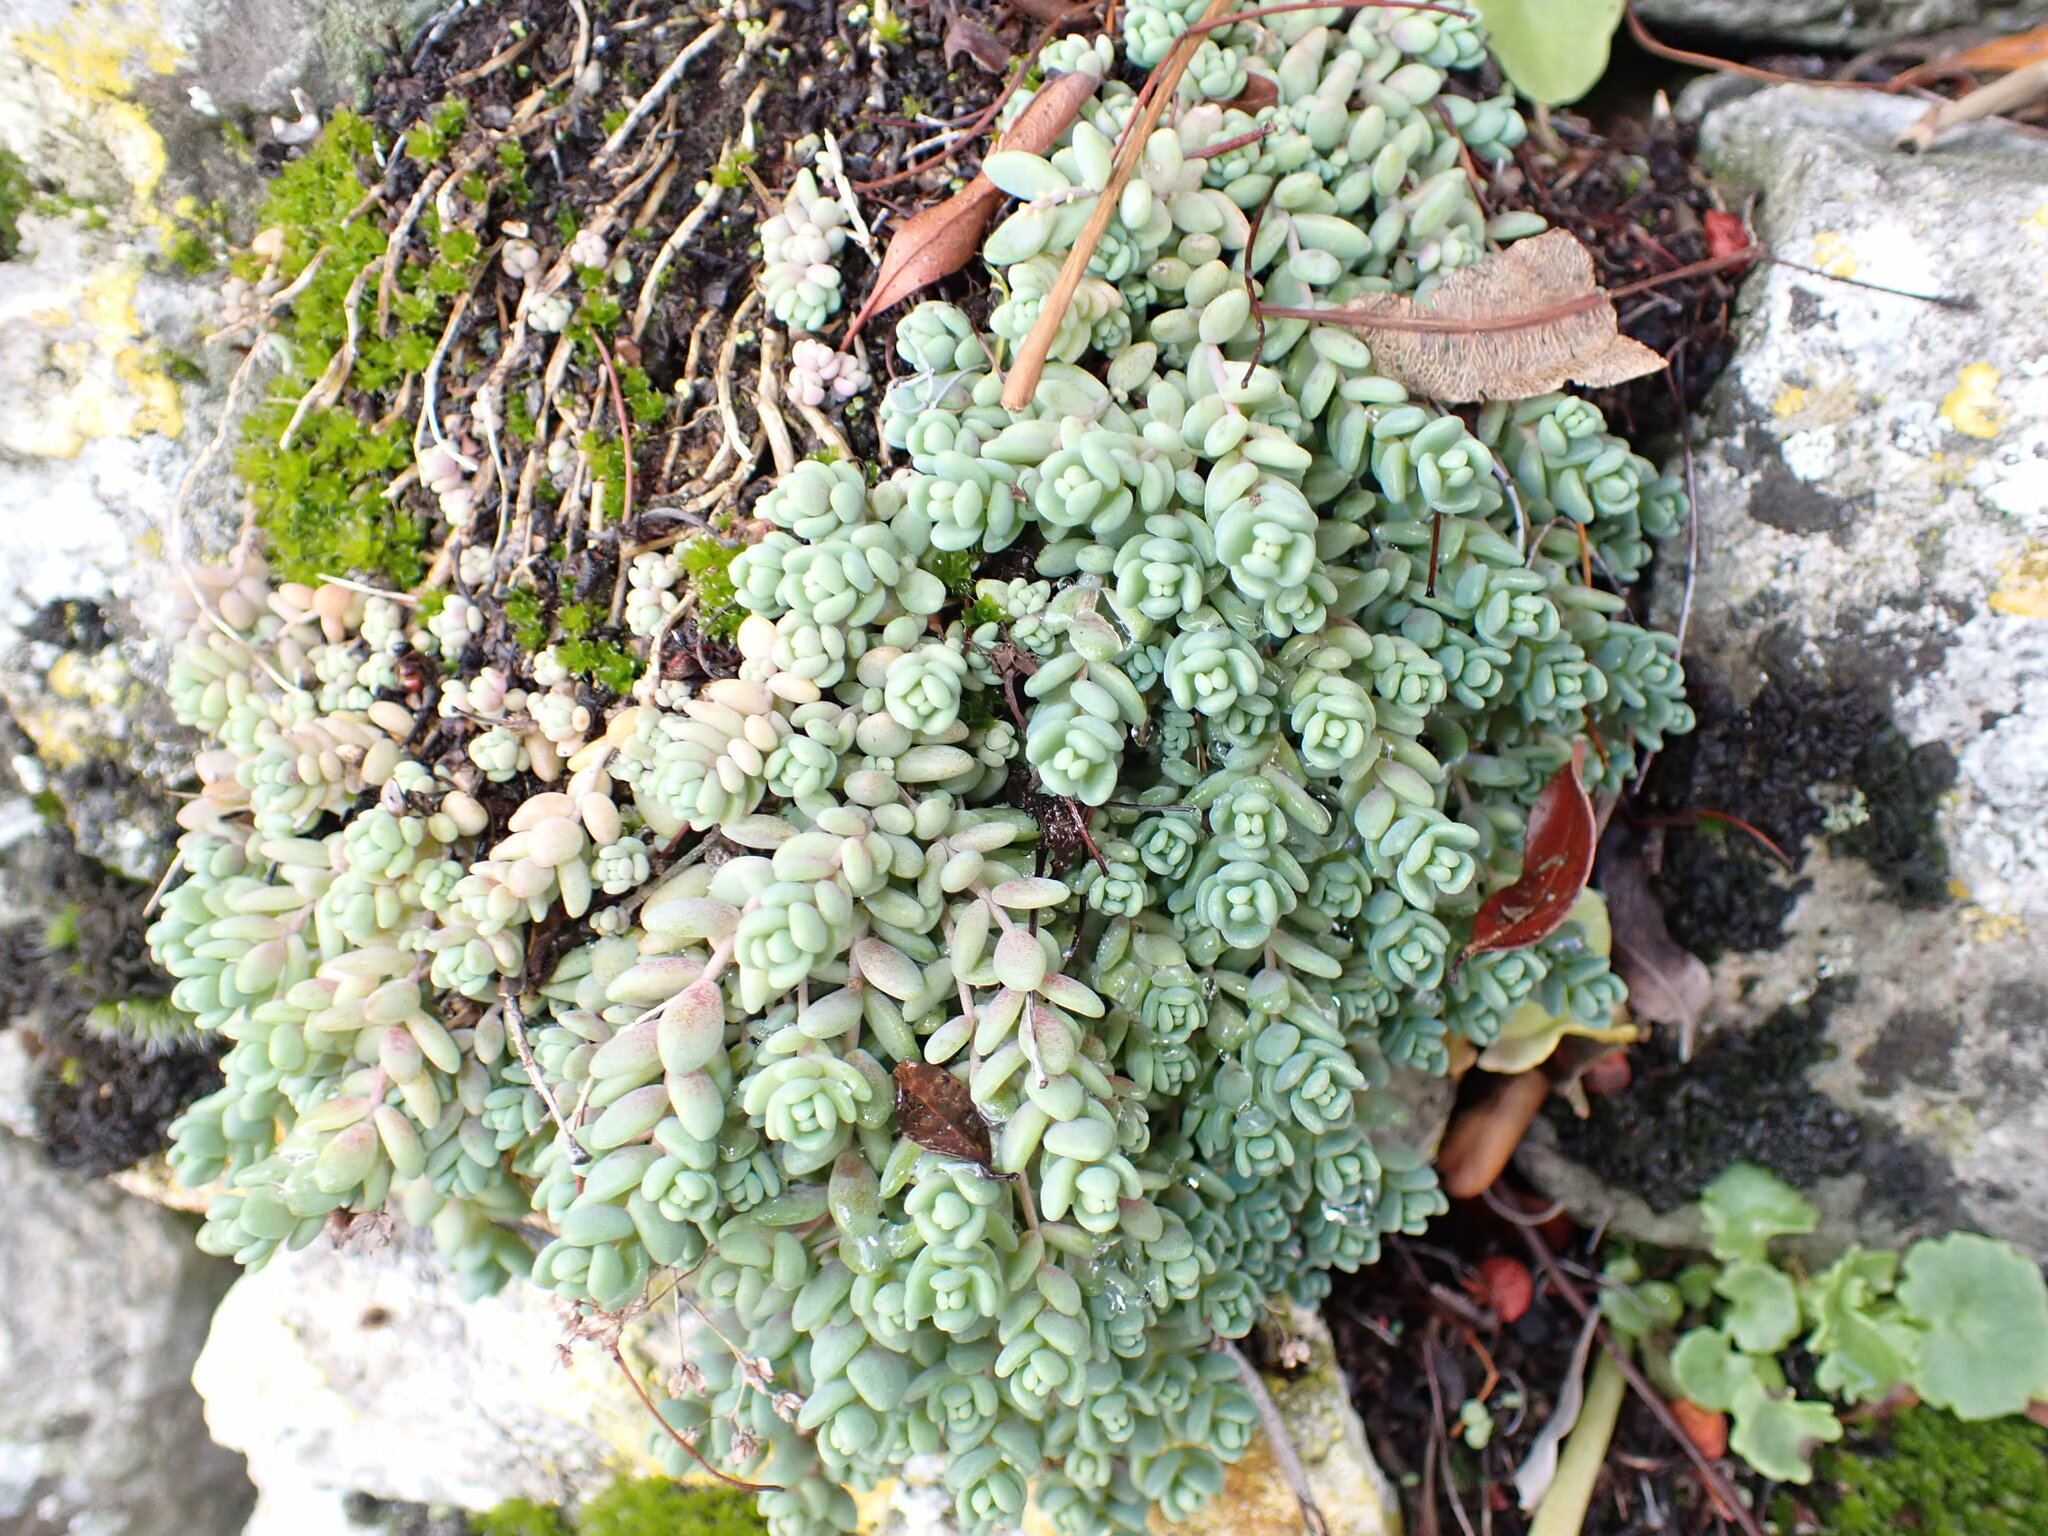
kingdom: Plantae
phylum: Tracheophyta
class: Magnoliopsida
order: Saxifragales
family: Crassulaceae
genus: Sedum
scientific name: Sedum dasyphyllum
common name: Thick-leaf stonecrop
